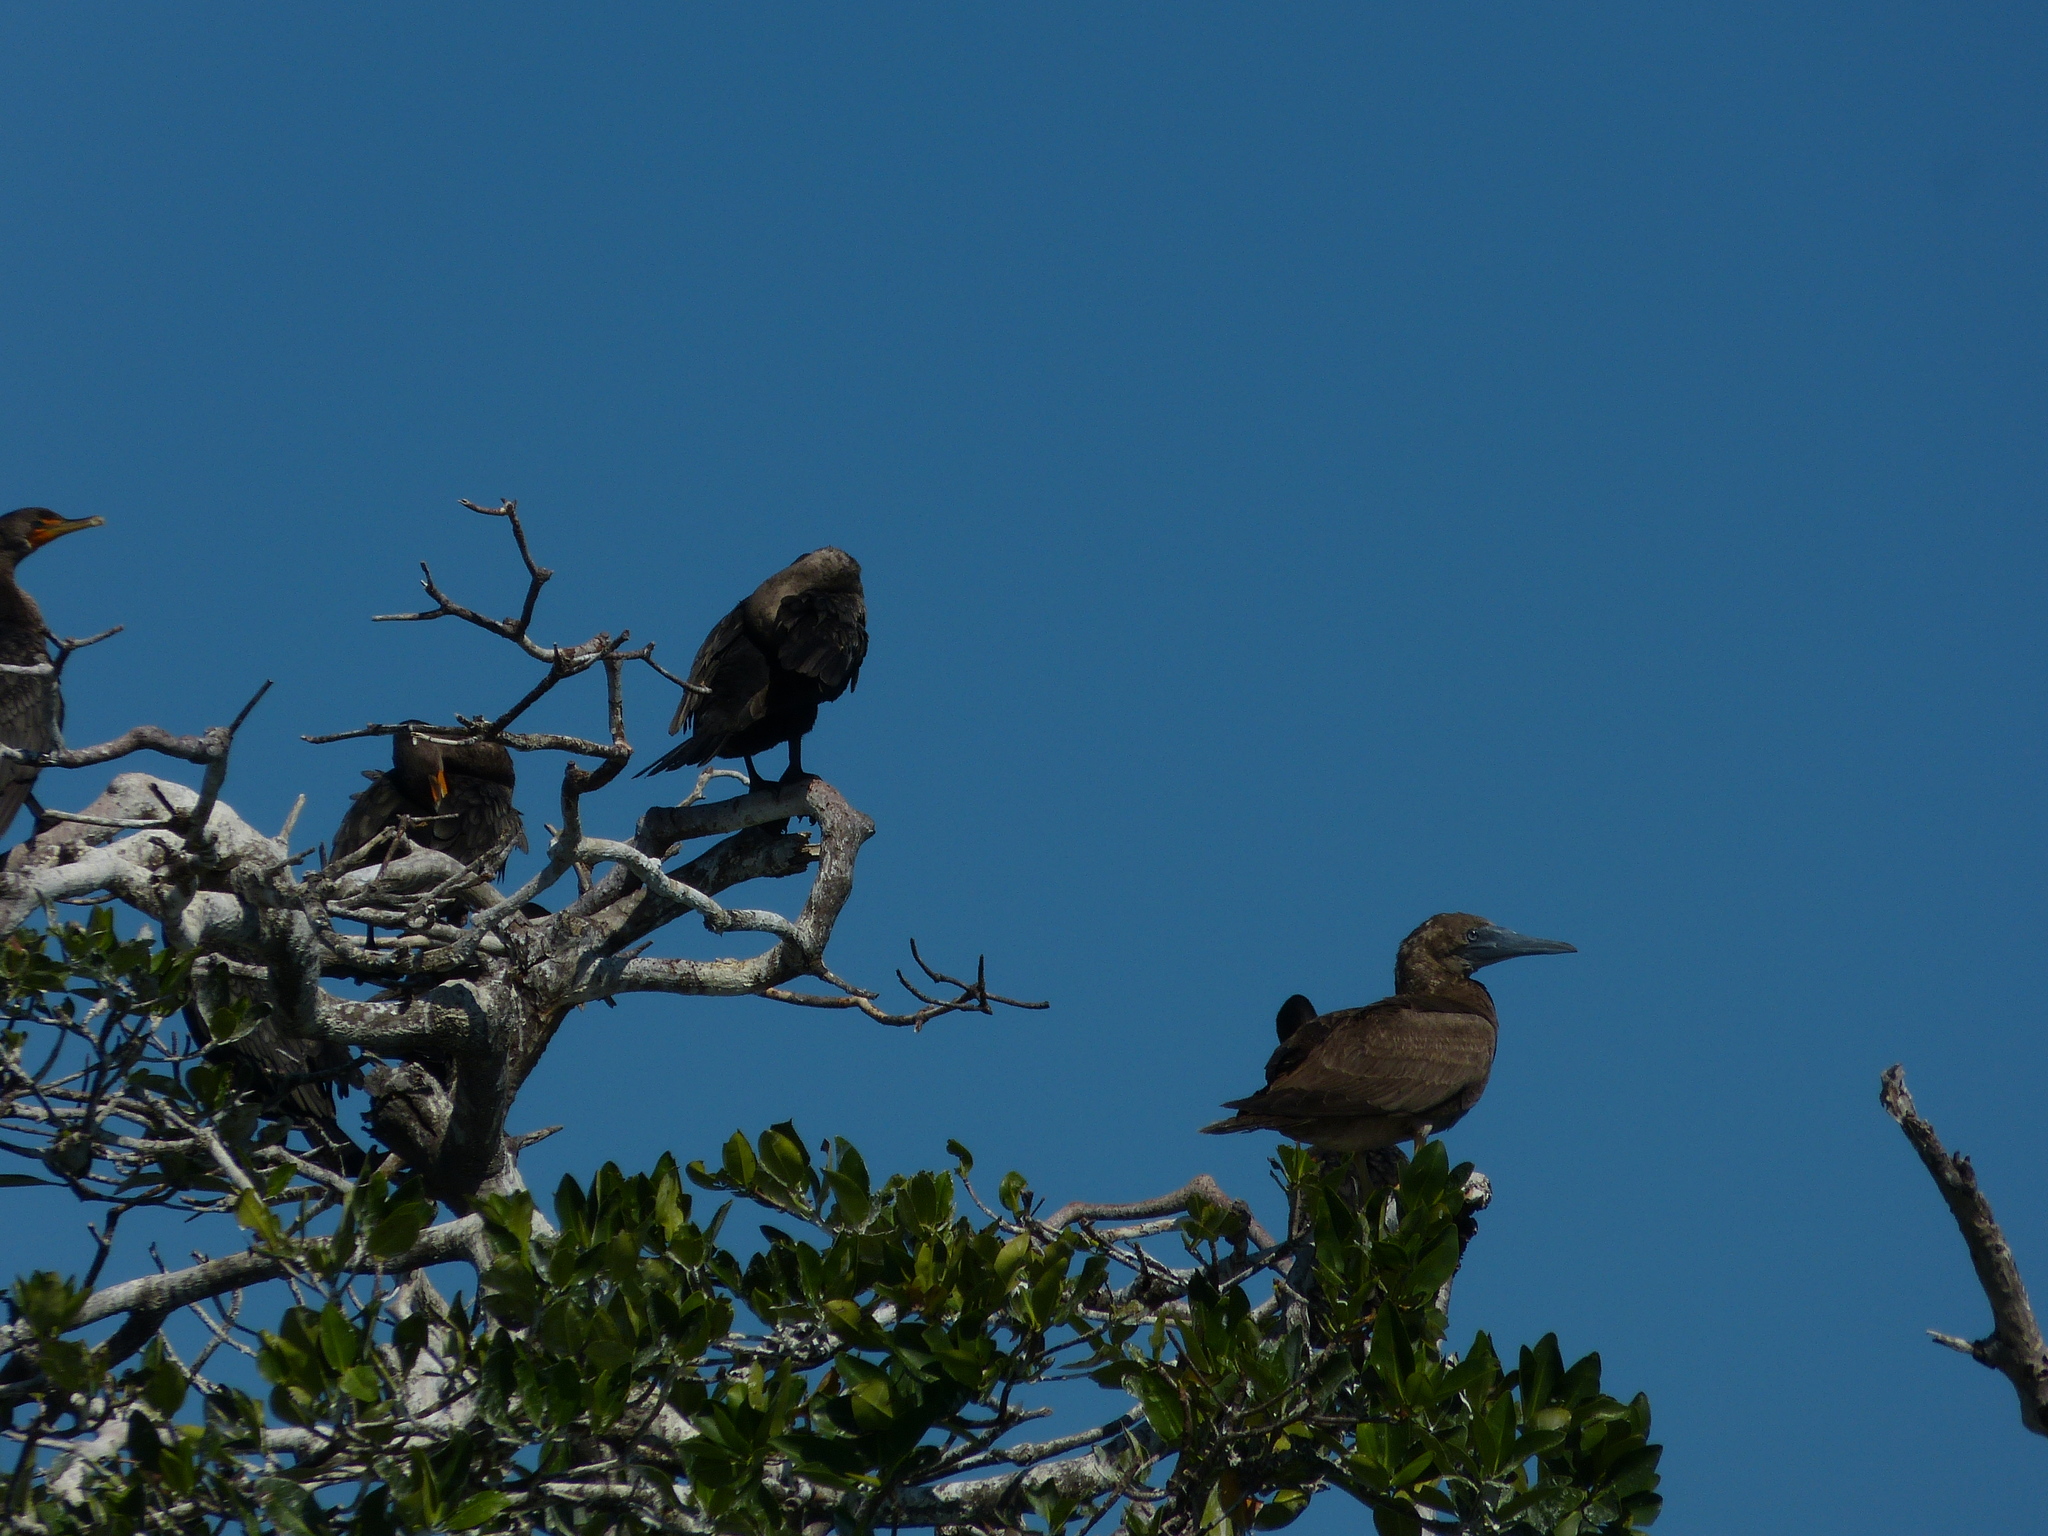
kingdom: Animalia
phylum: Chordata
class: Aves
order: Suliformes
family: Sulidae
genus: Sula
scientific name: Sula leucogaster
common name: Brown booby
